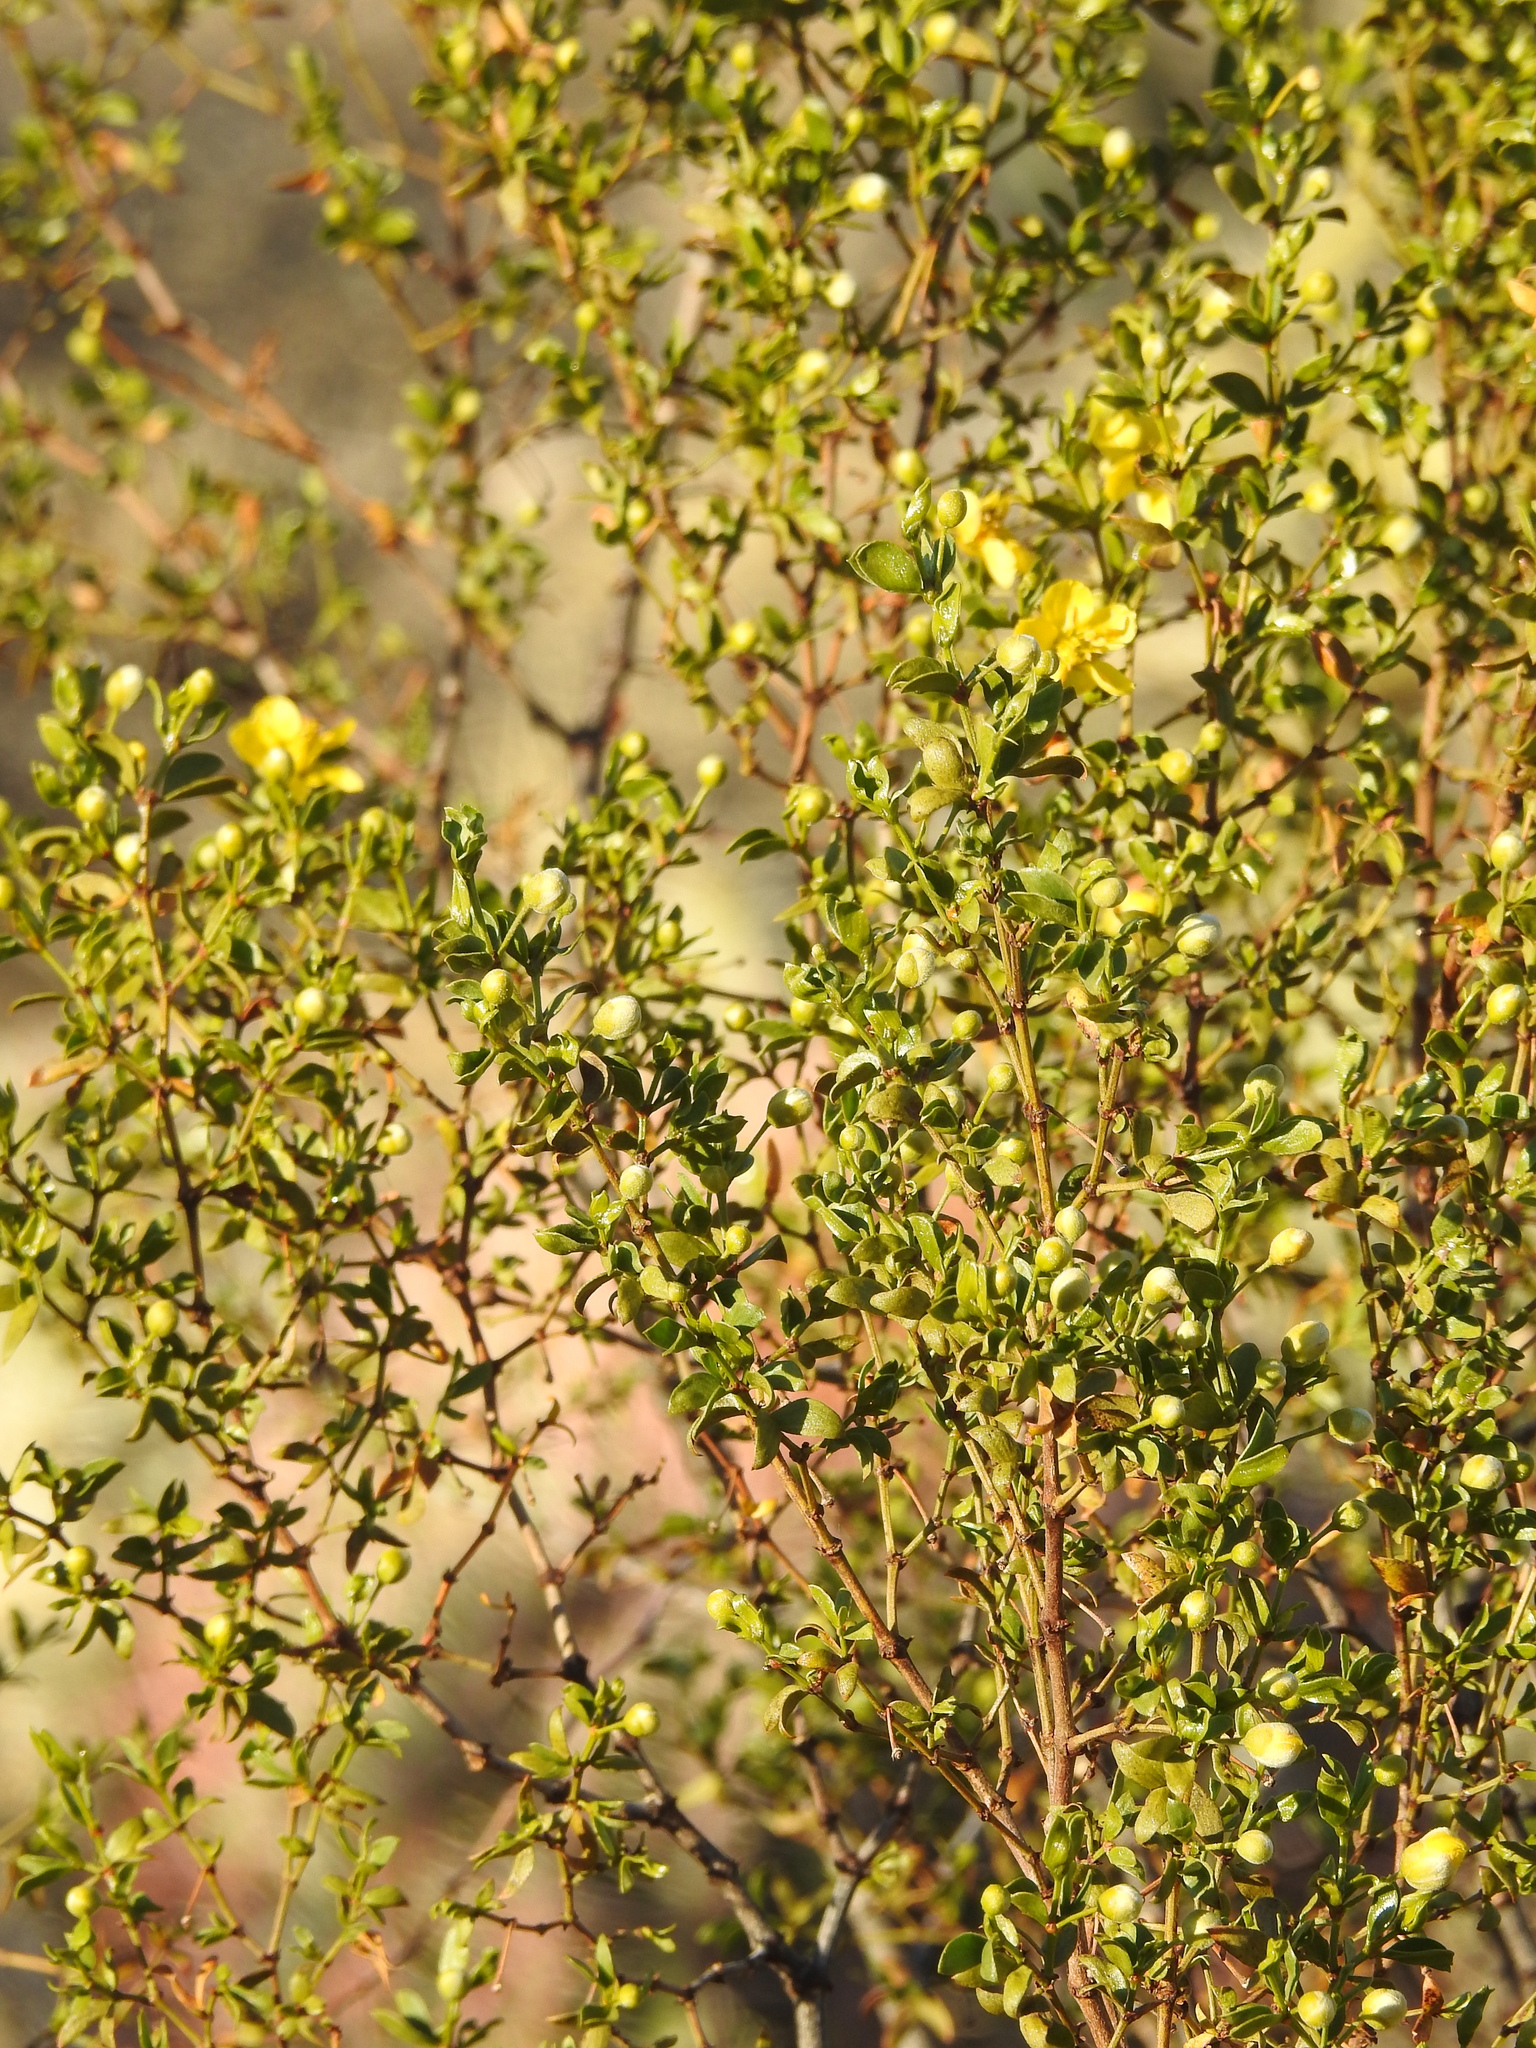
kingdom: Plantae
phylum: Tracheophyta
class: Magnoliopsida
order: Zygophyllales
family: Zygophyllaceae
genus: Larrea
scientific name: Larrea tridentata
